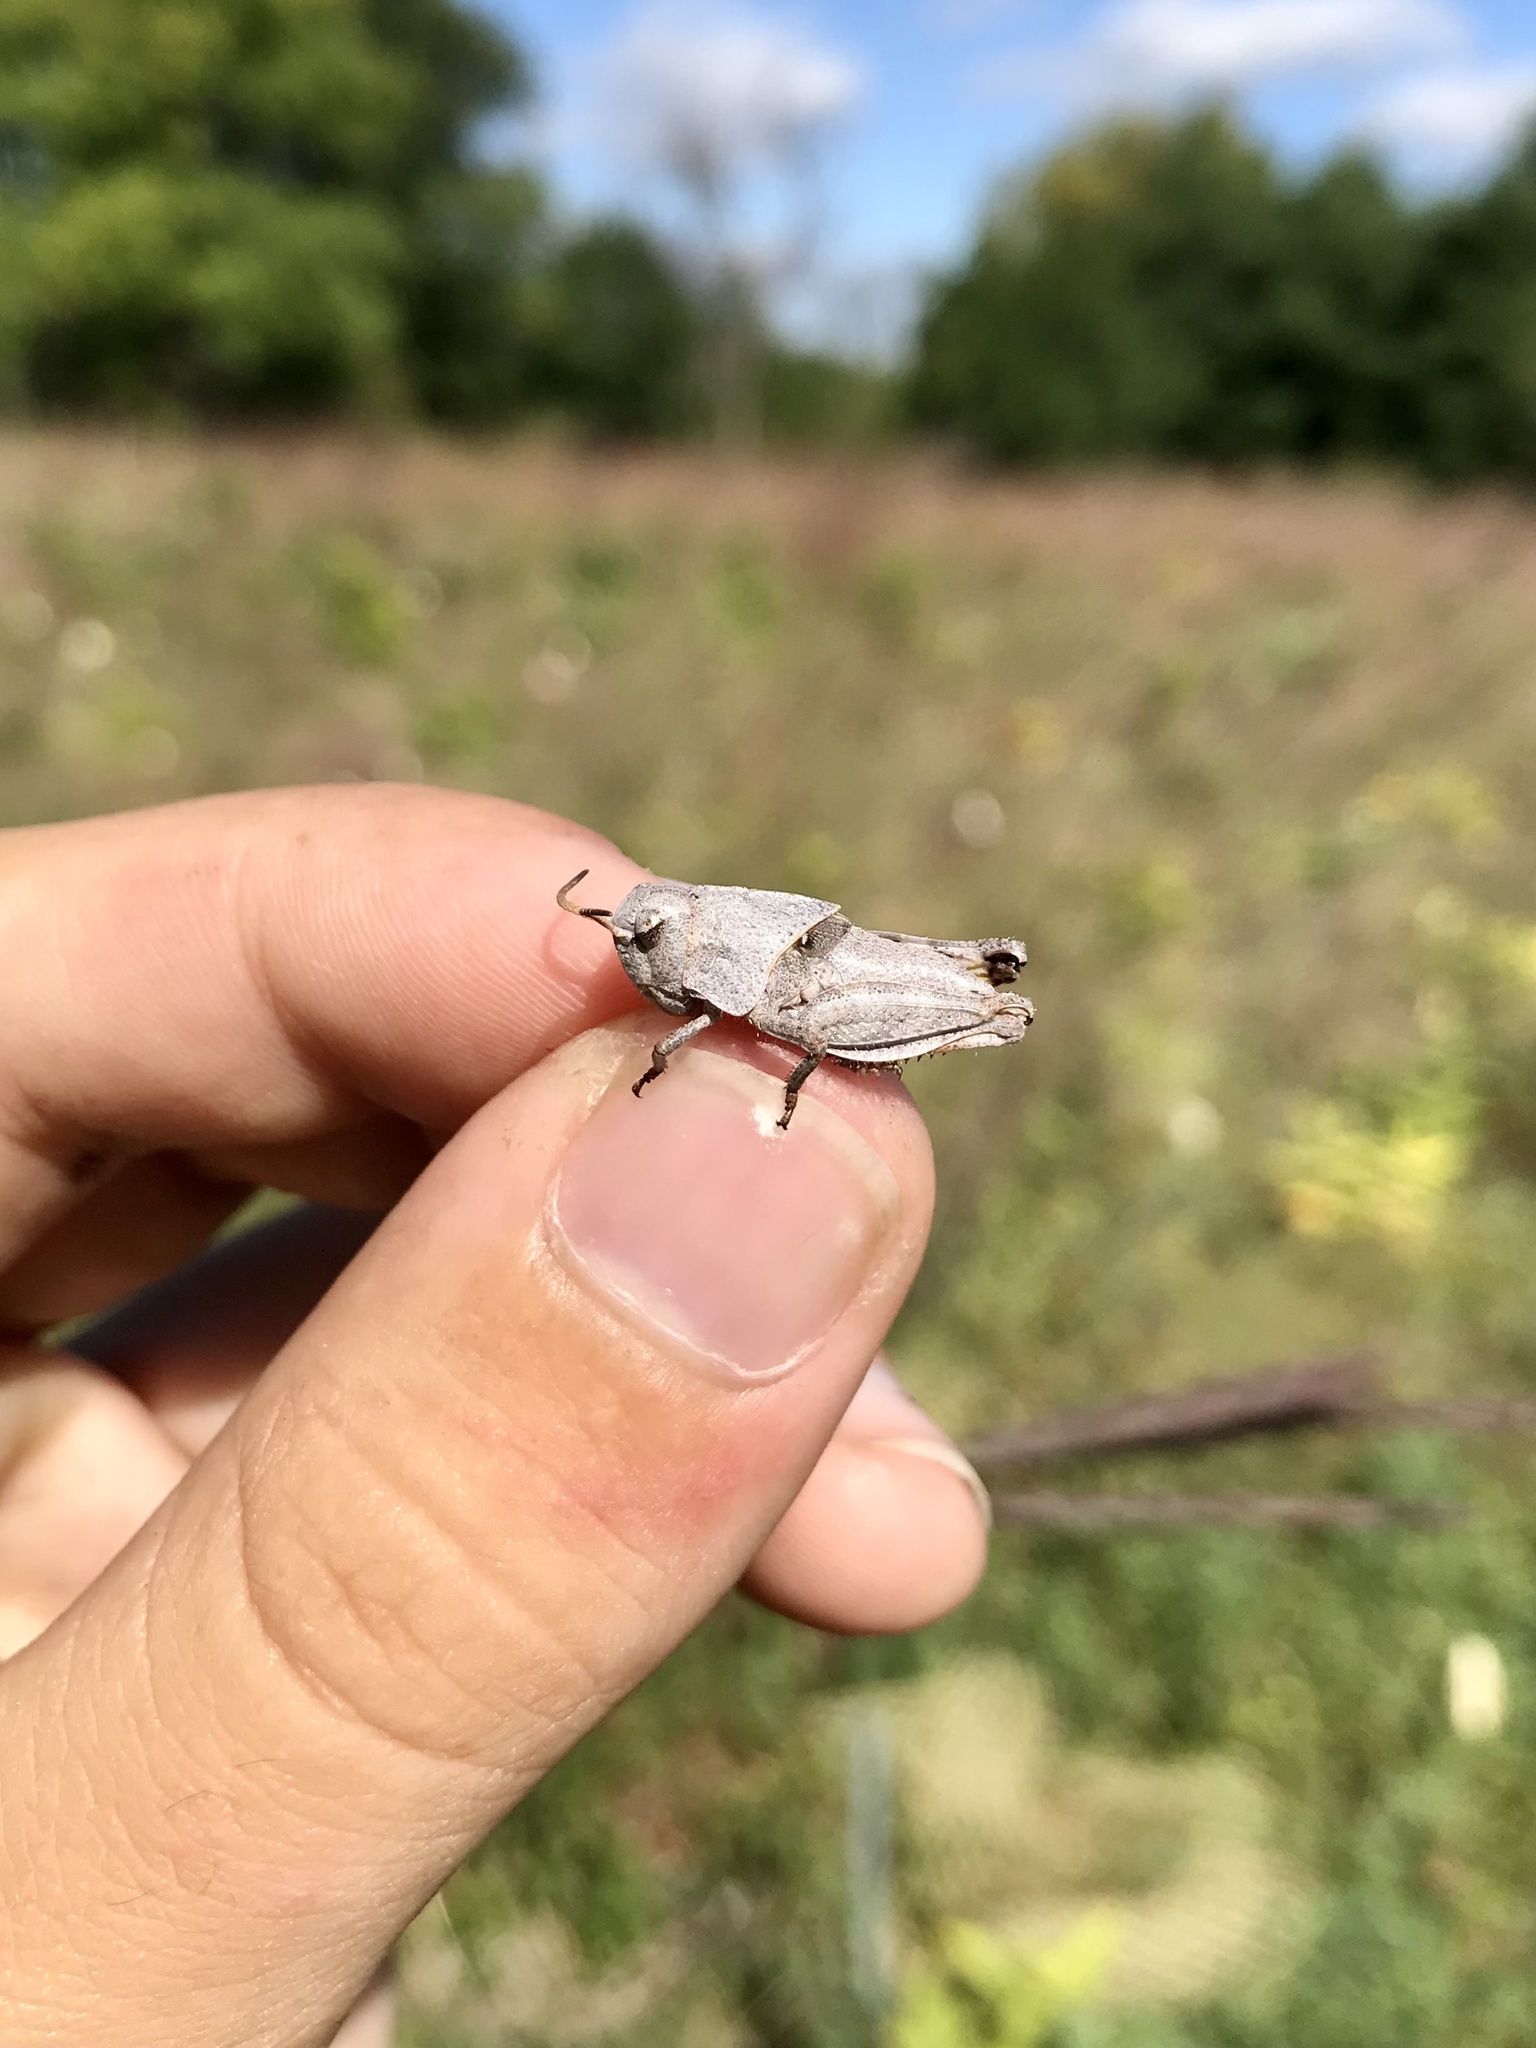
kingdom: Animalia
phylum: Arthropoda
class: Insecta
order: Orthoptera
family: Acrididae
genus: Pardalophora
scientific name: Pardalophora apiculata
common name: Coral-winged locust
